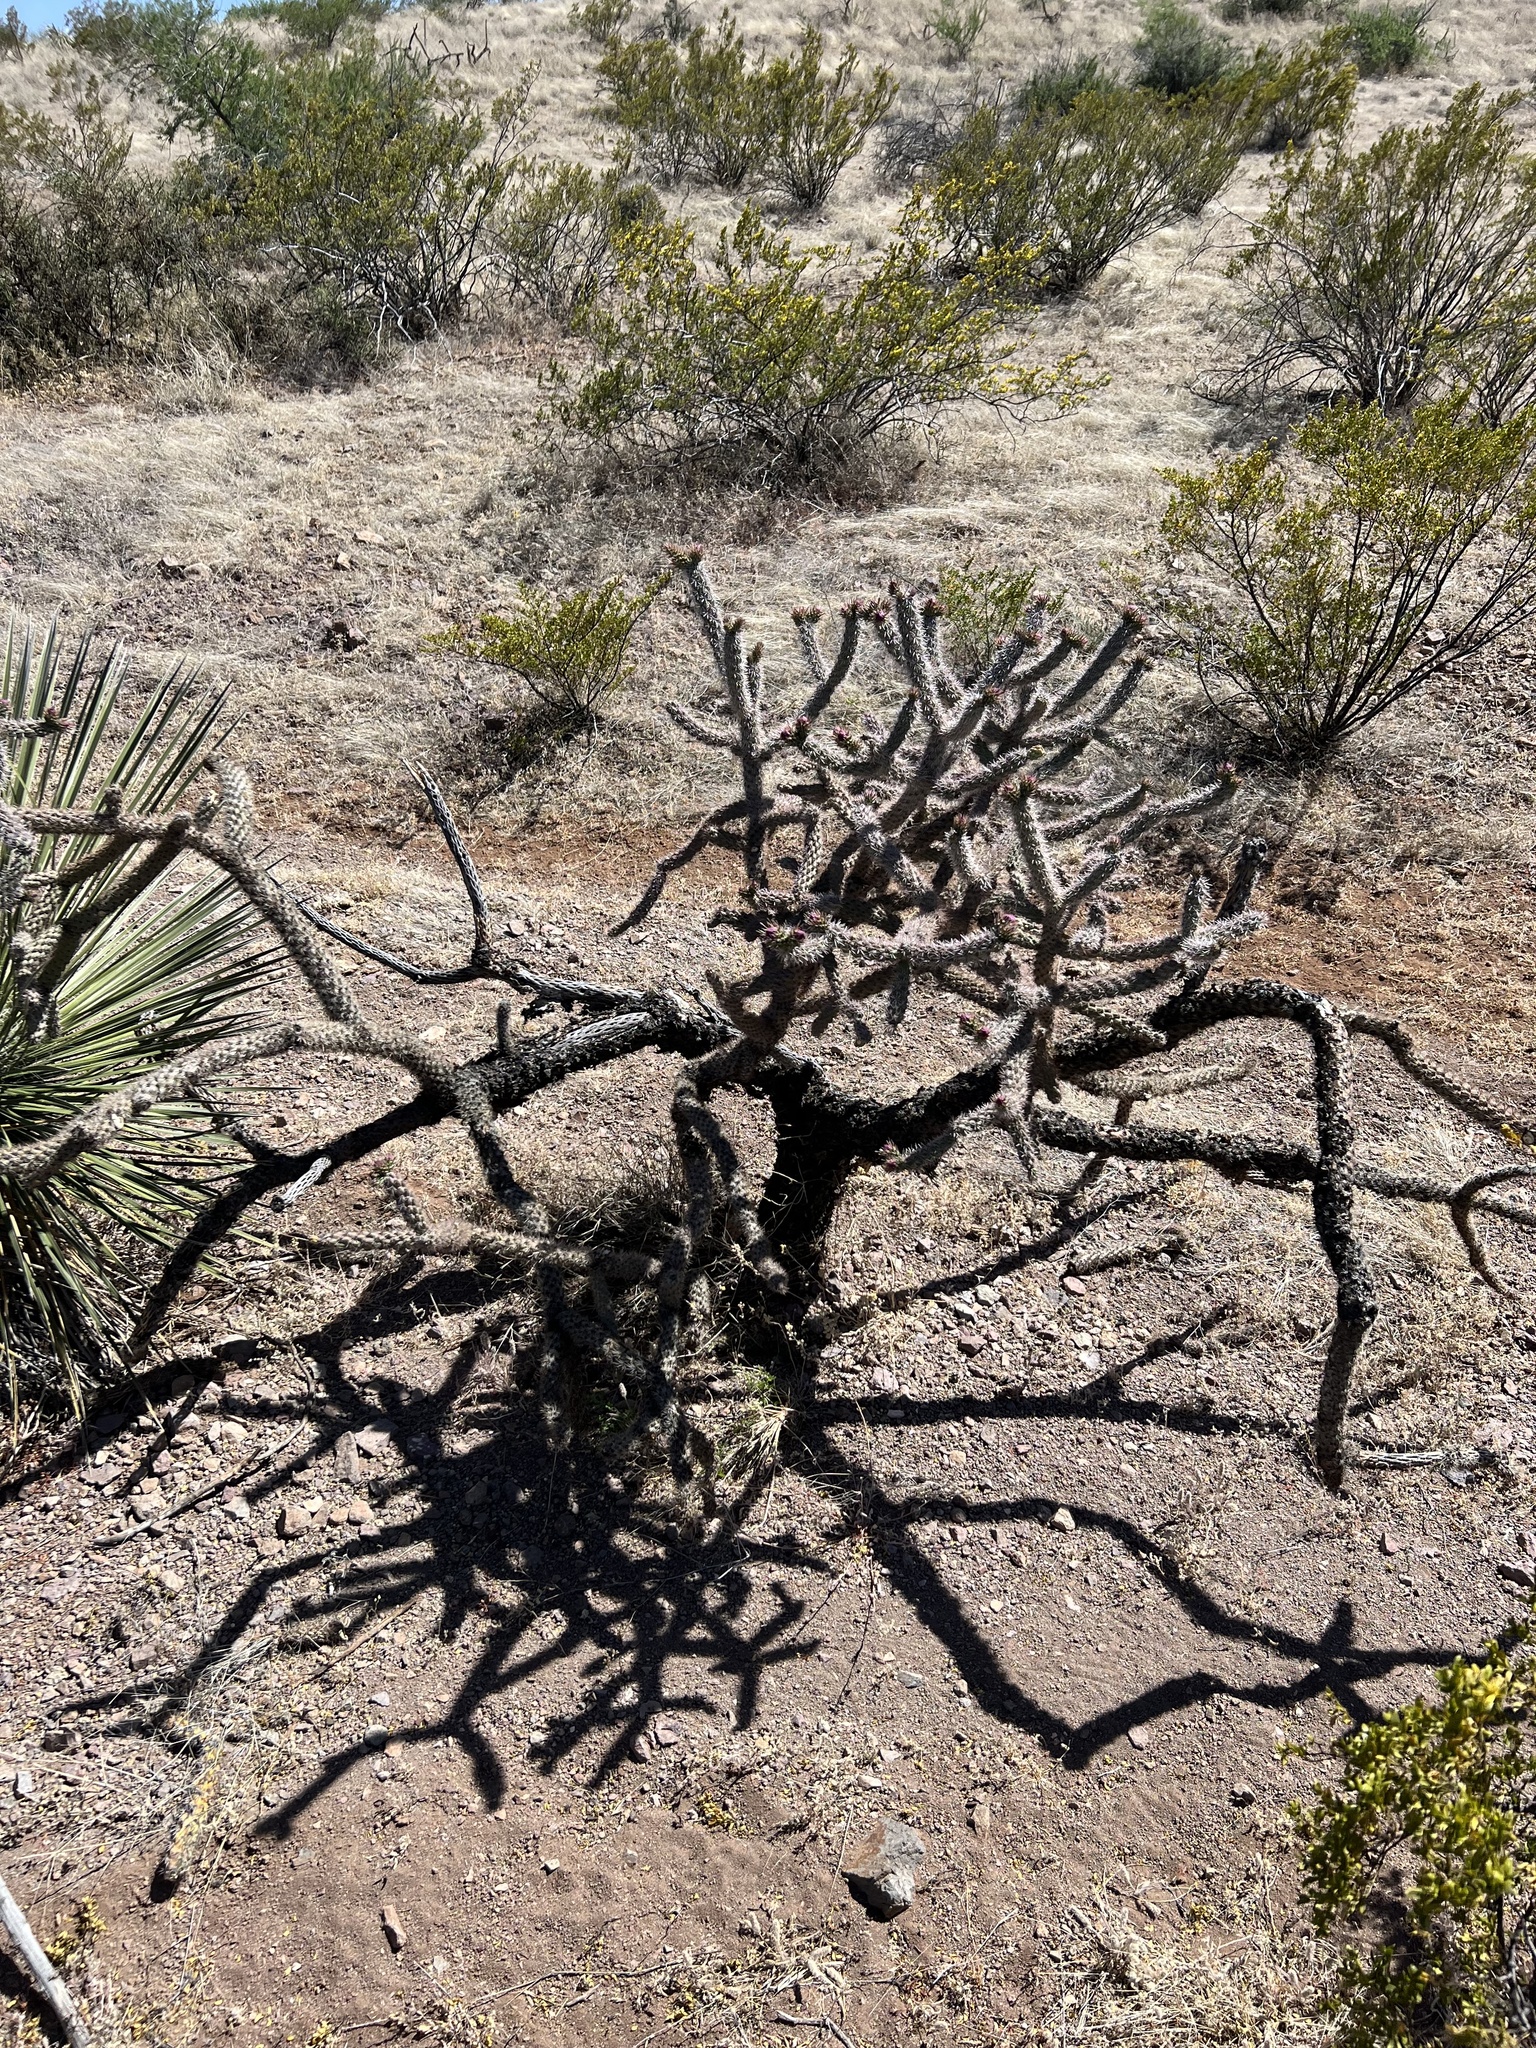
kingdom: Plantae
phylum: Tracheophyta
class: Magnoliopsida
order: Caryophyllales
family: Cactaceae
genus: Cylindropuntia
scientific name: Cylindropuntia imbricata
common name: Candelabrum cactus
